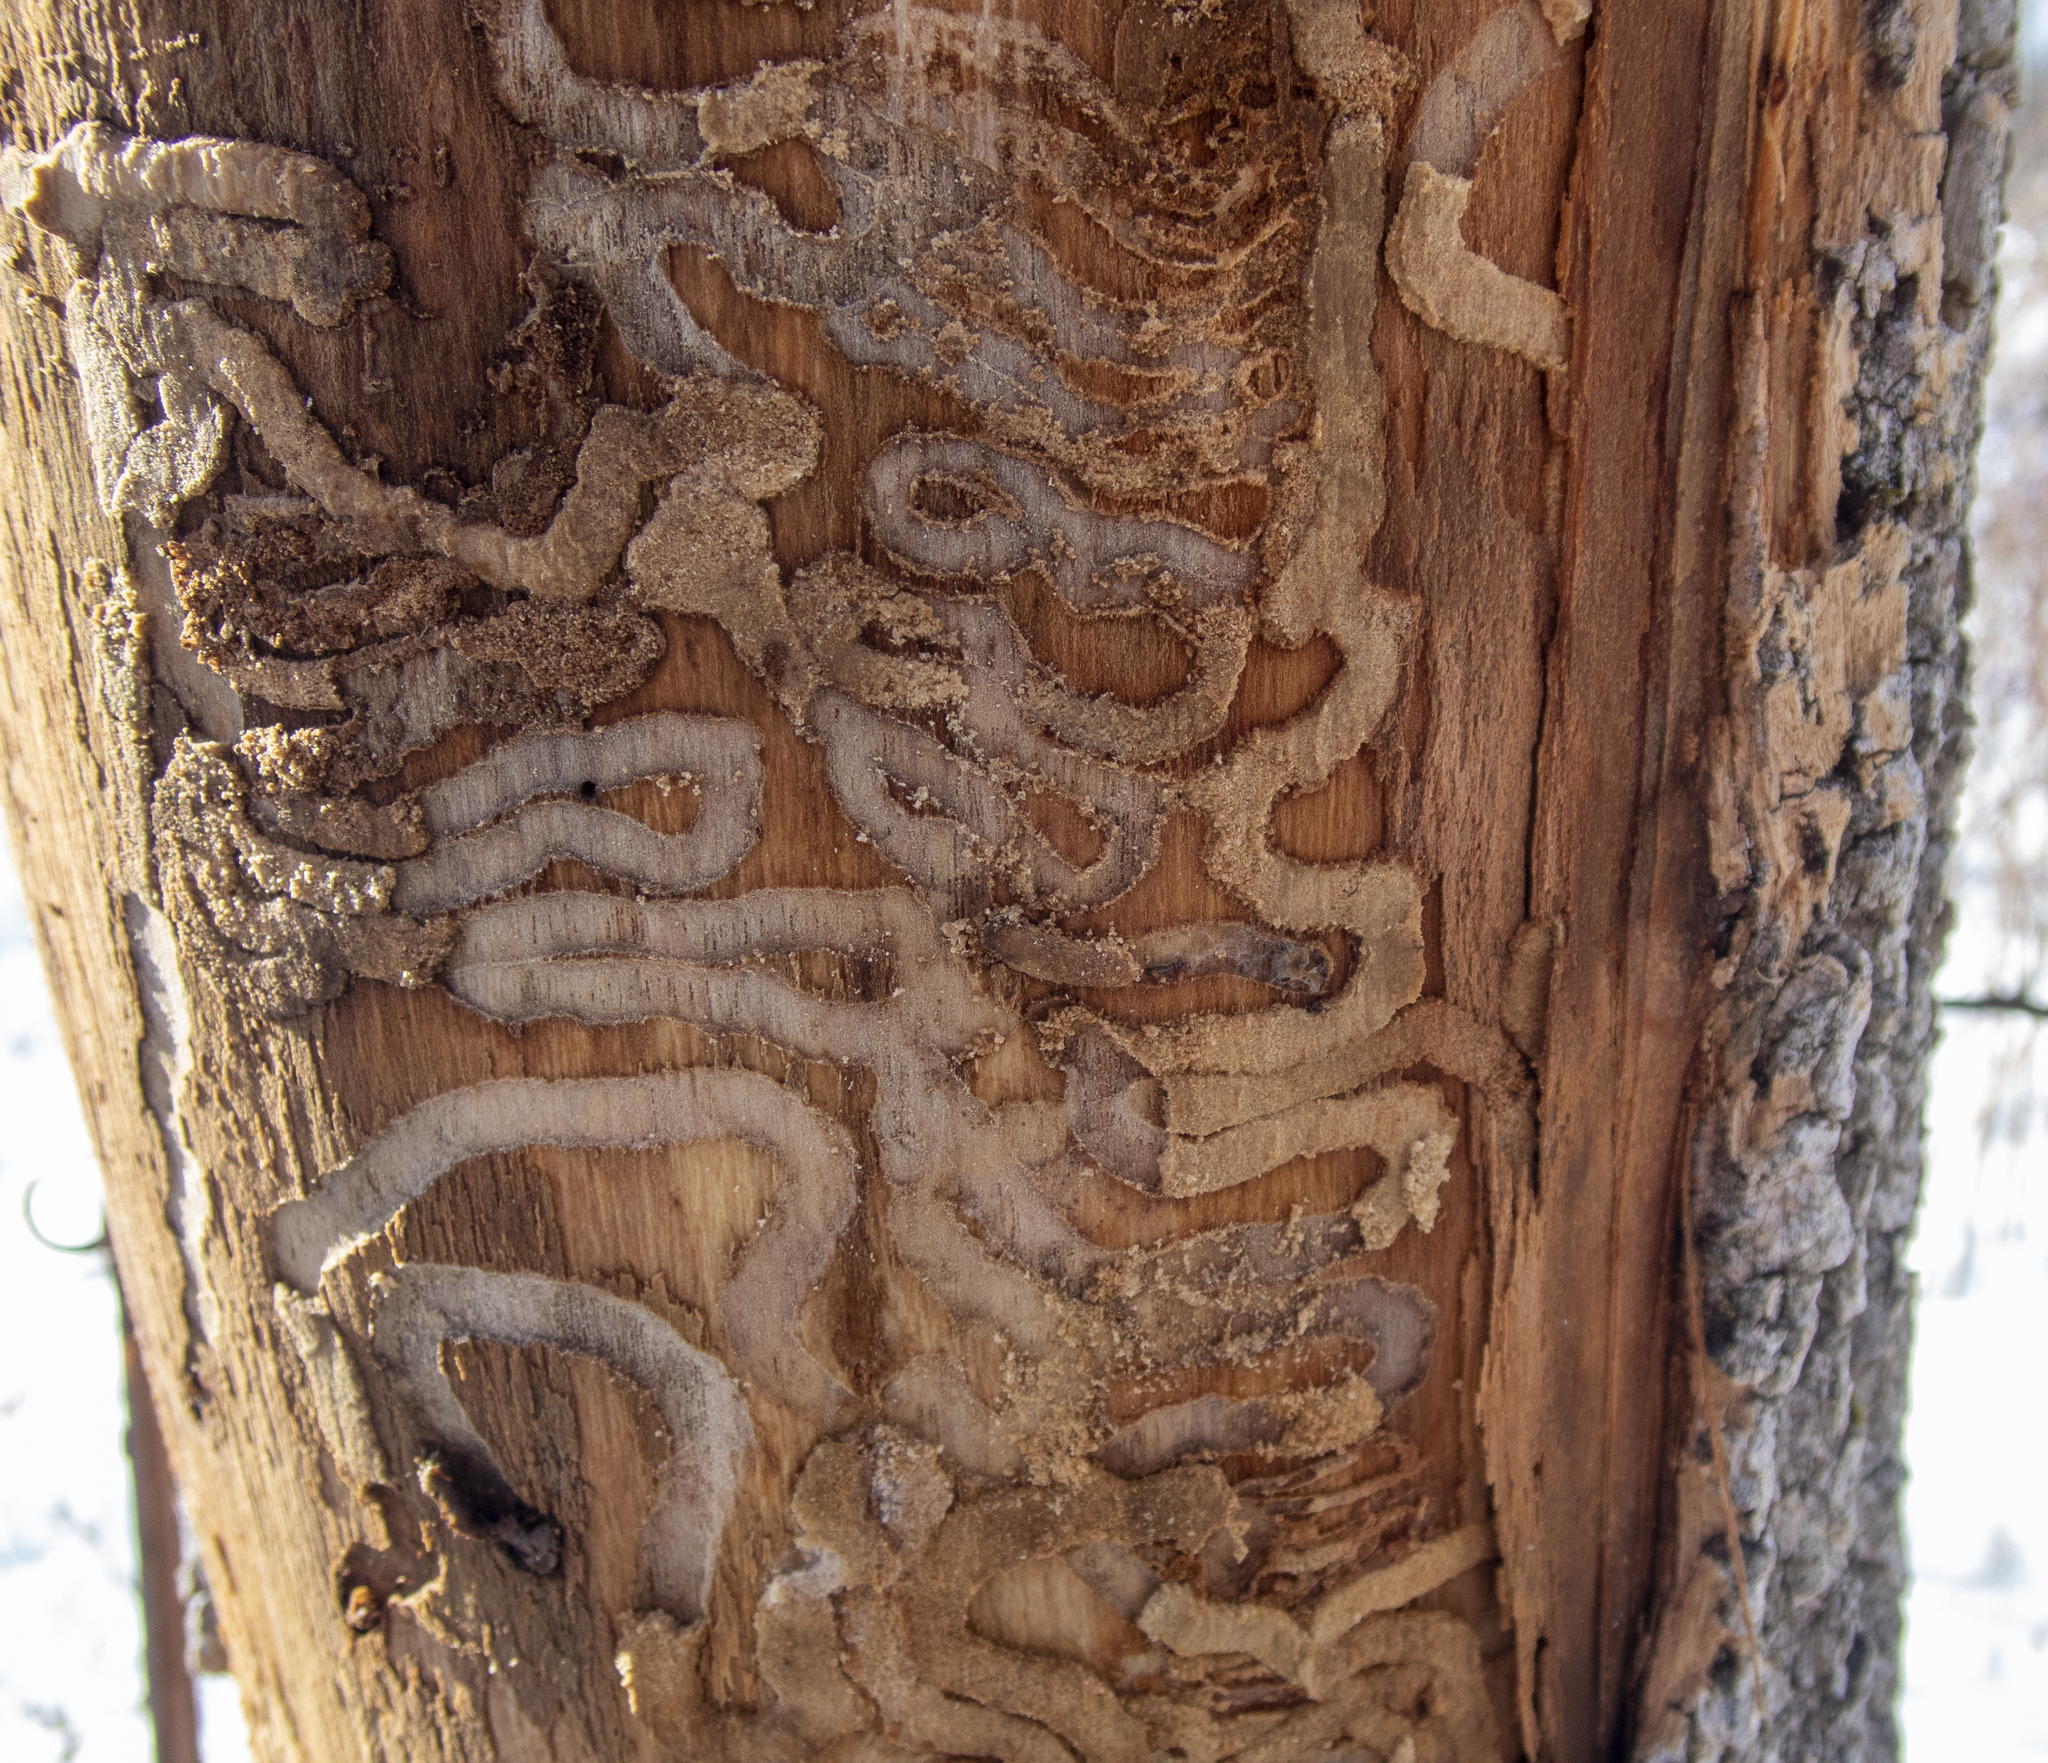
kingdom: Animalia
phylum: Arthropoda
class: Insecta
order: Coleoptera
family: Buprestidae
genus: Agrilus
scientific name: Agrilus planipennis
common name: Emerald ash borer
